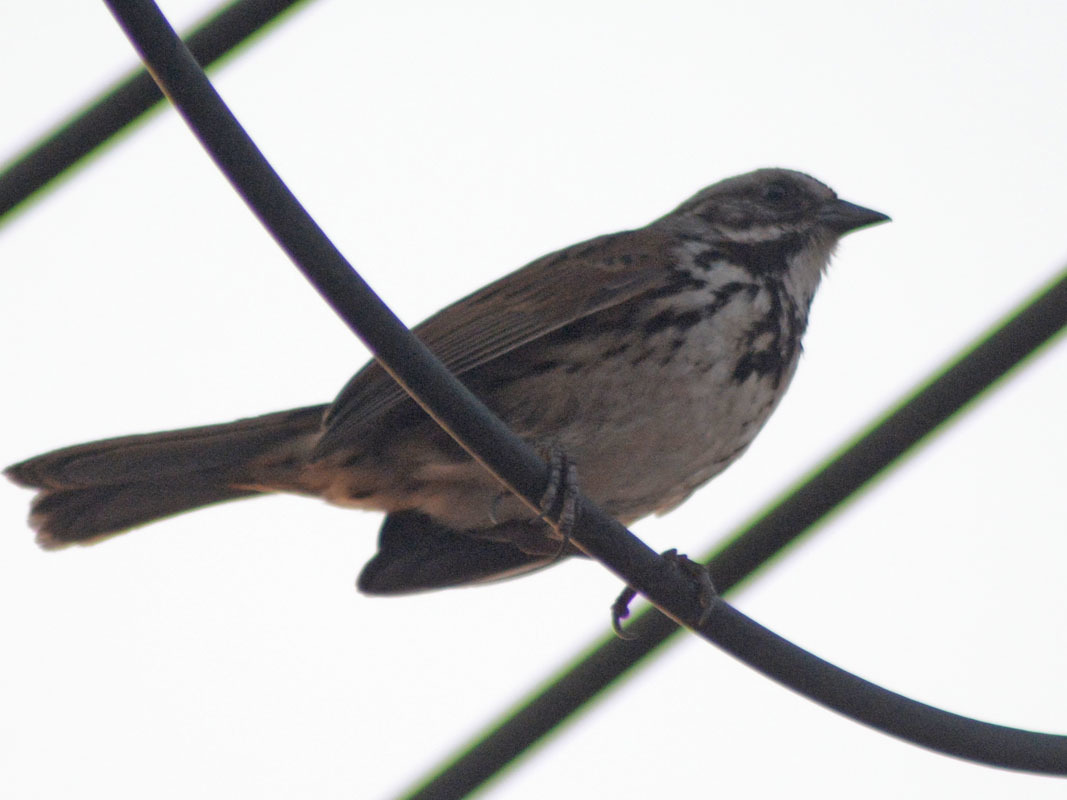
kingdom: Animalia
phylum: Chordata
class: Aves
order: Passeriformes
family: Passerellidae
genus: Melospiza
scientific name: Melospiza melodia
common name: Song sparrow
